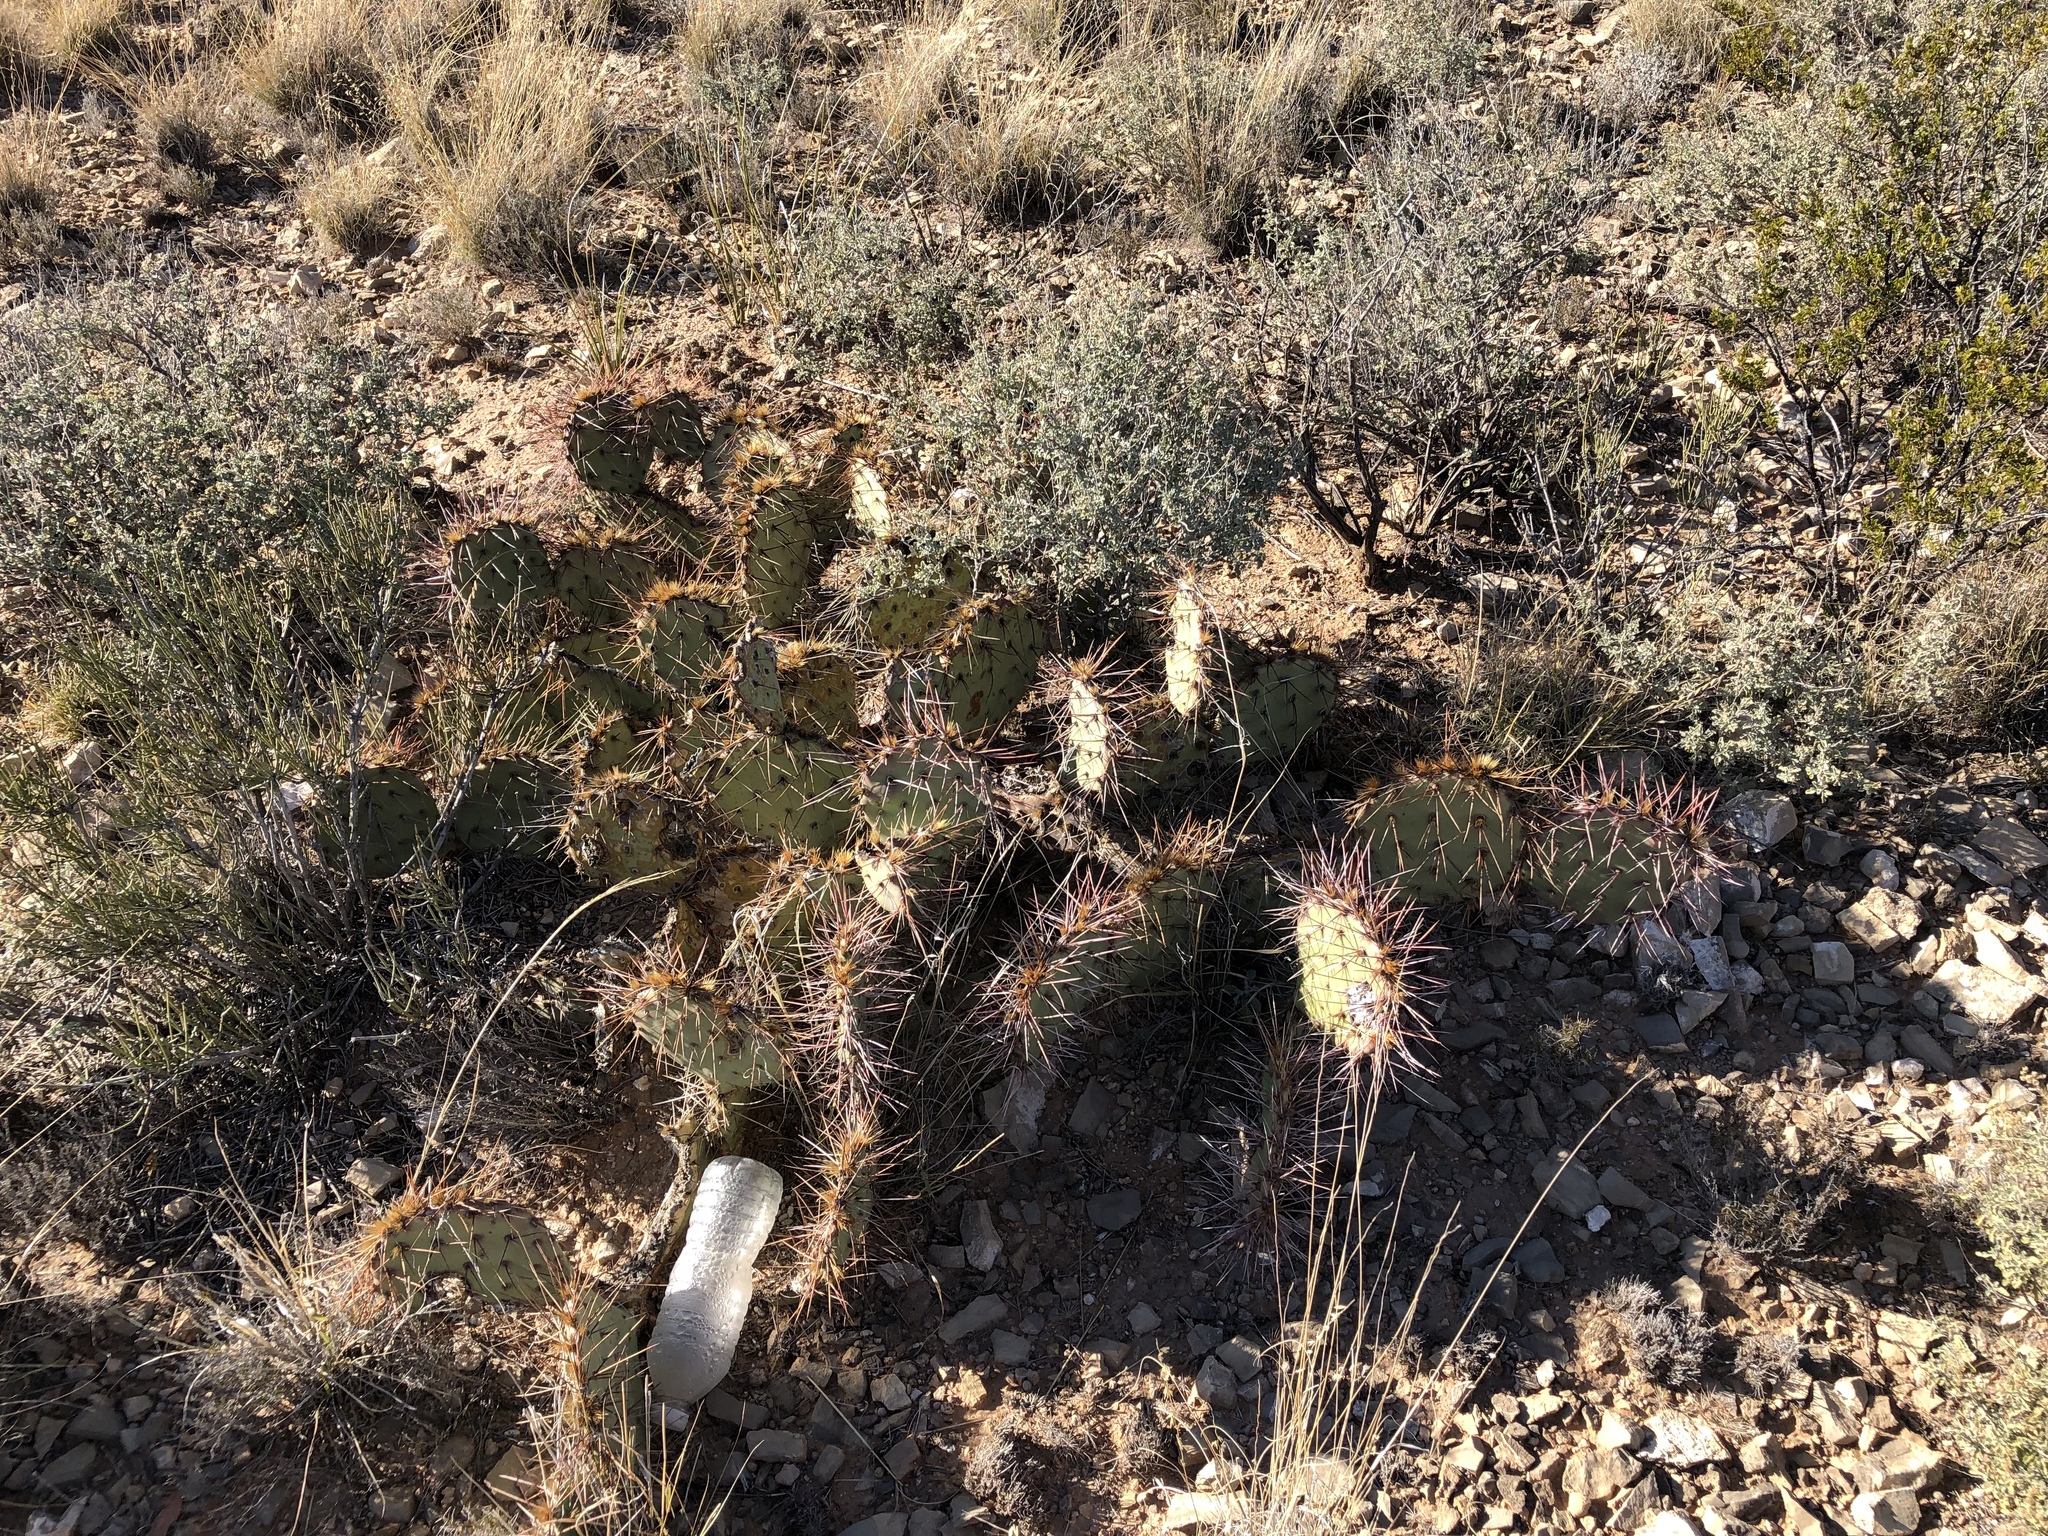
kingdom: Plantae
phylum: Tracheophyta
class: Magnoliopsida
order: Caryophyllales
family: Cactaceae
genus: Opuntia
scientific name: Opuntia phaeacantha
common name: New mexico prickly-pear
